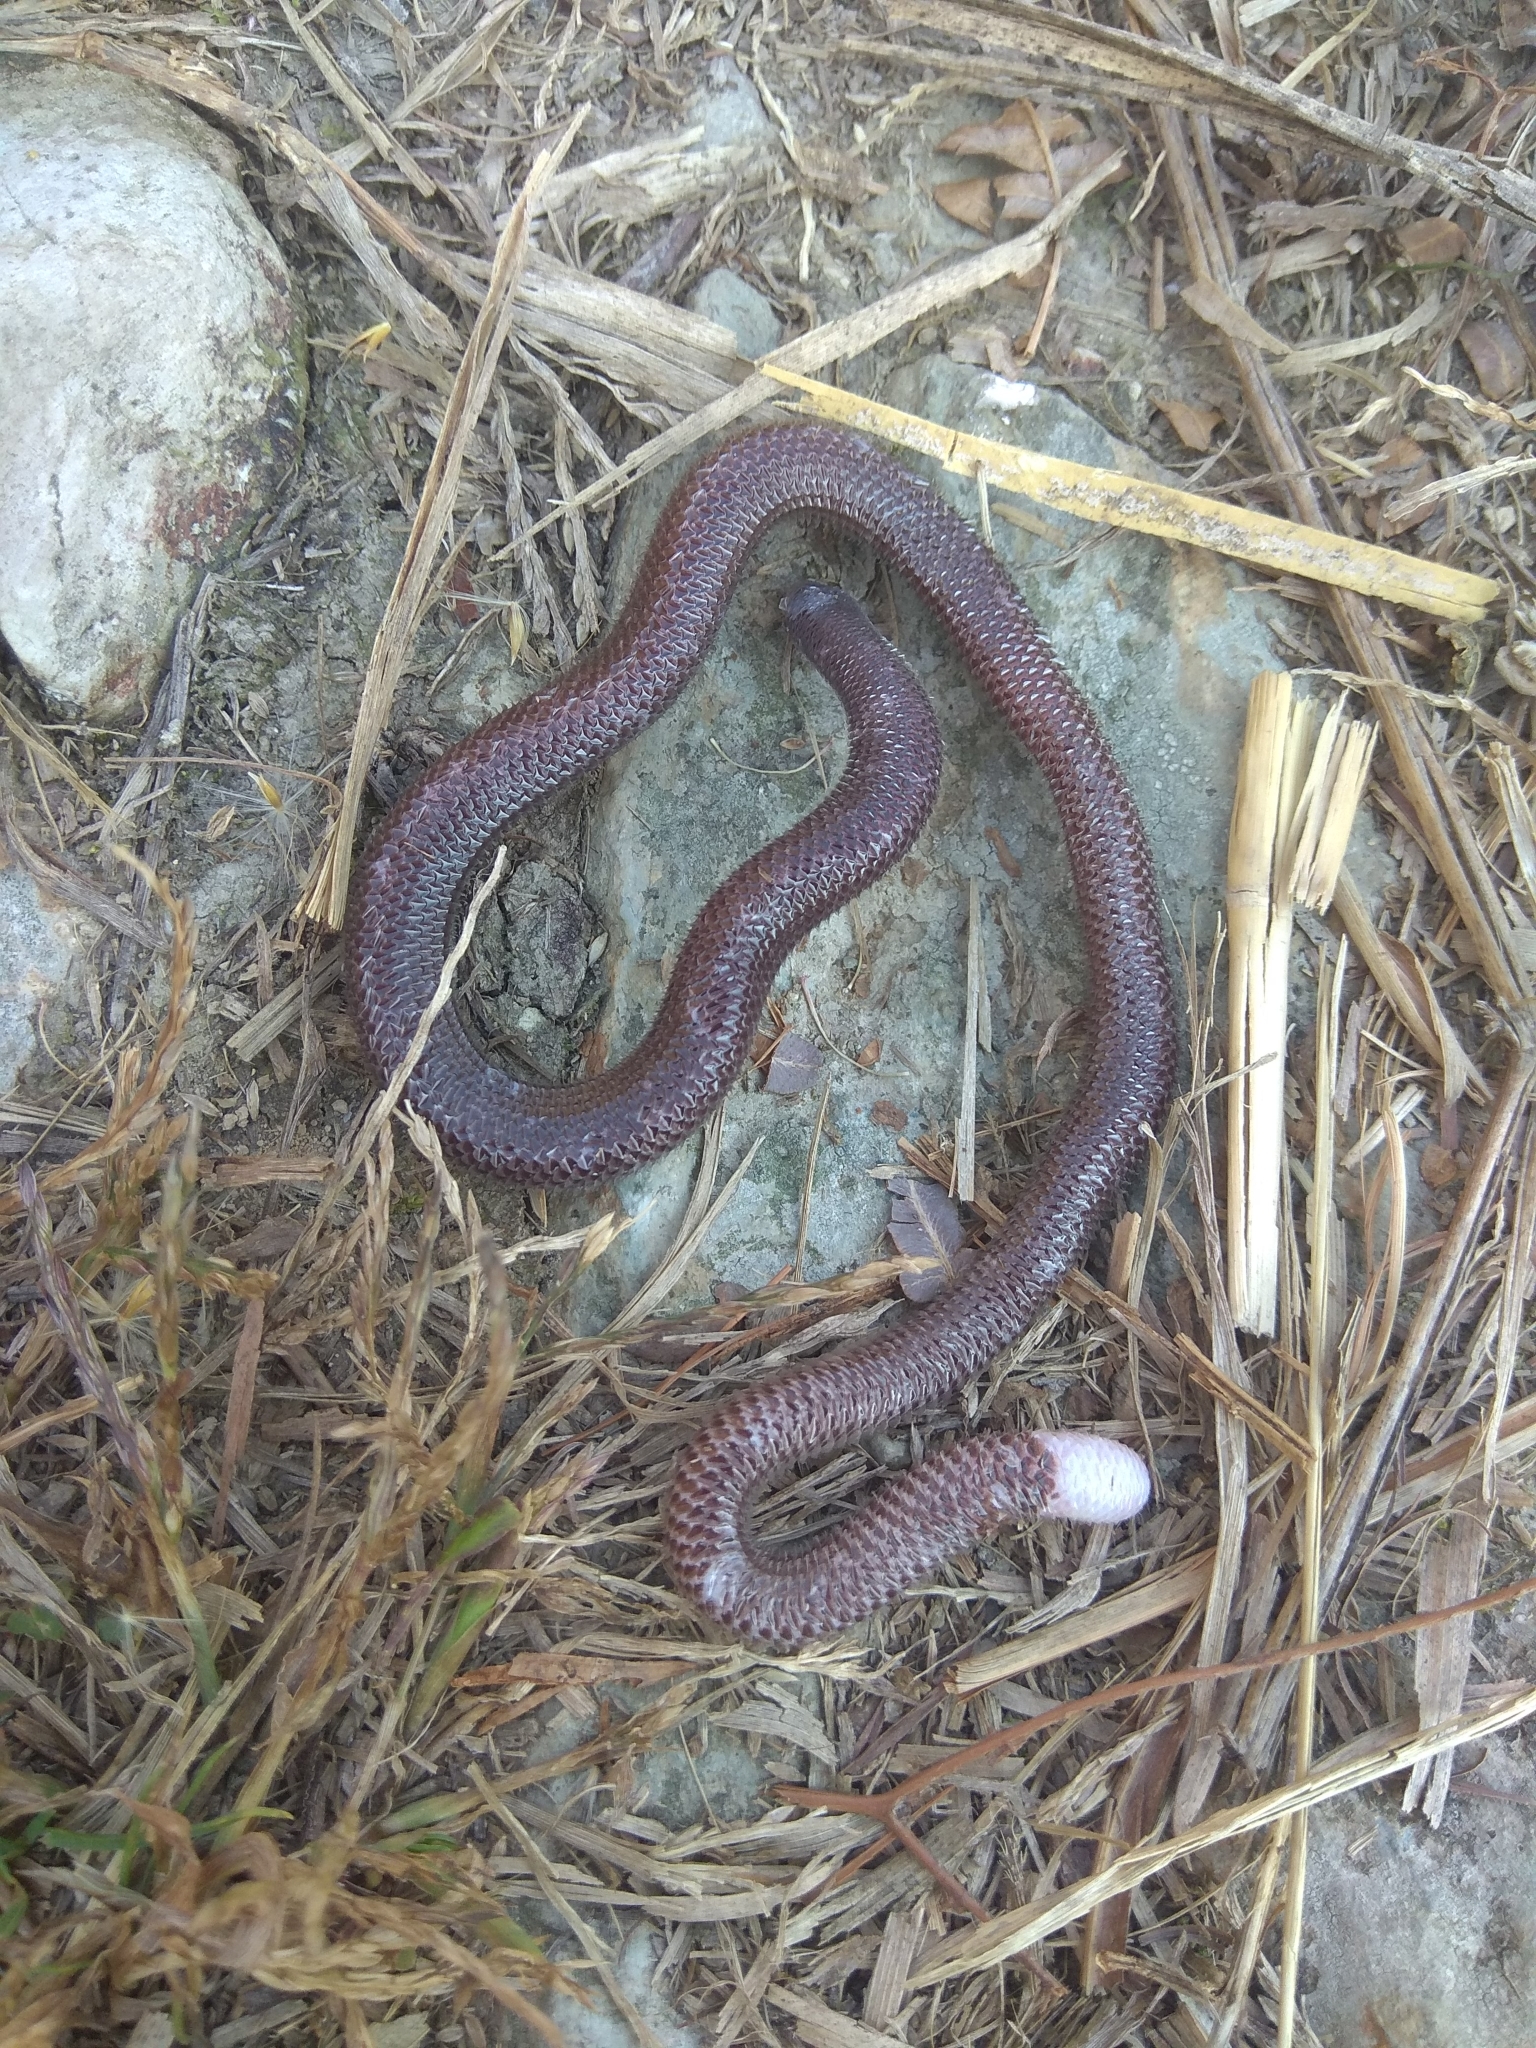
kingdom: Animalia
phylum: Chordata
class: Squamata
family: Dibamidae
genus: Dibamus
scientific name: Dibamus bourreti
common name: Bourret's blind skink
